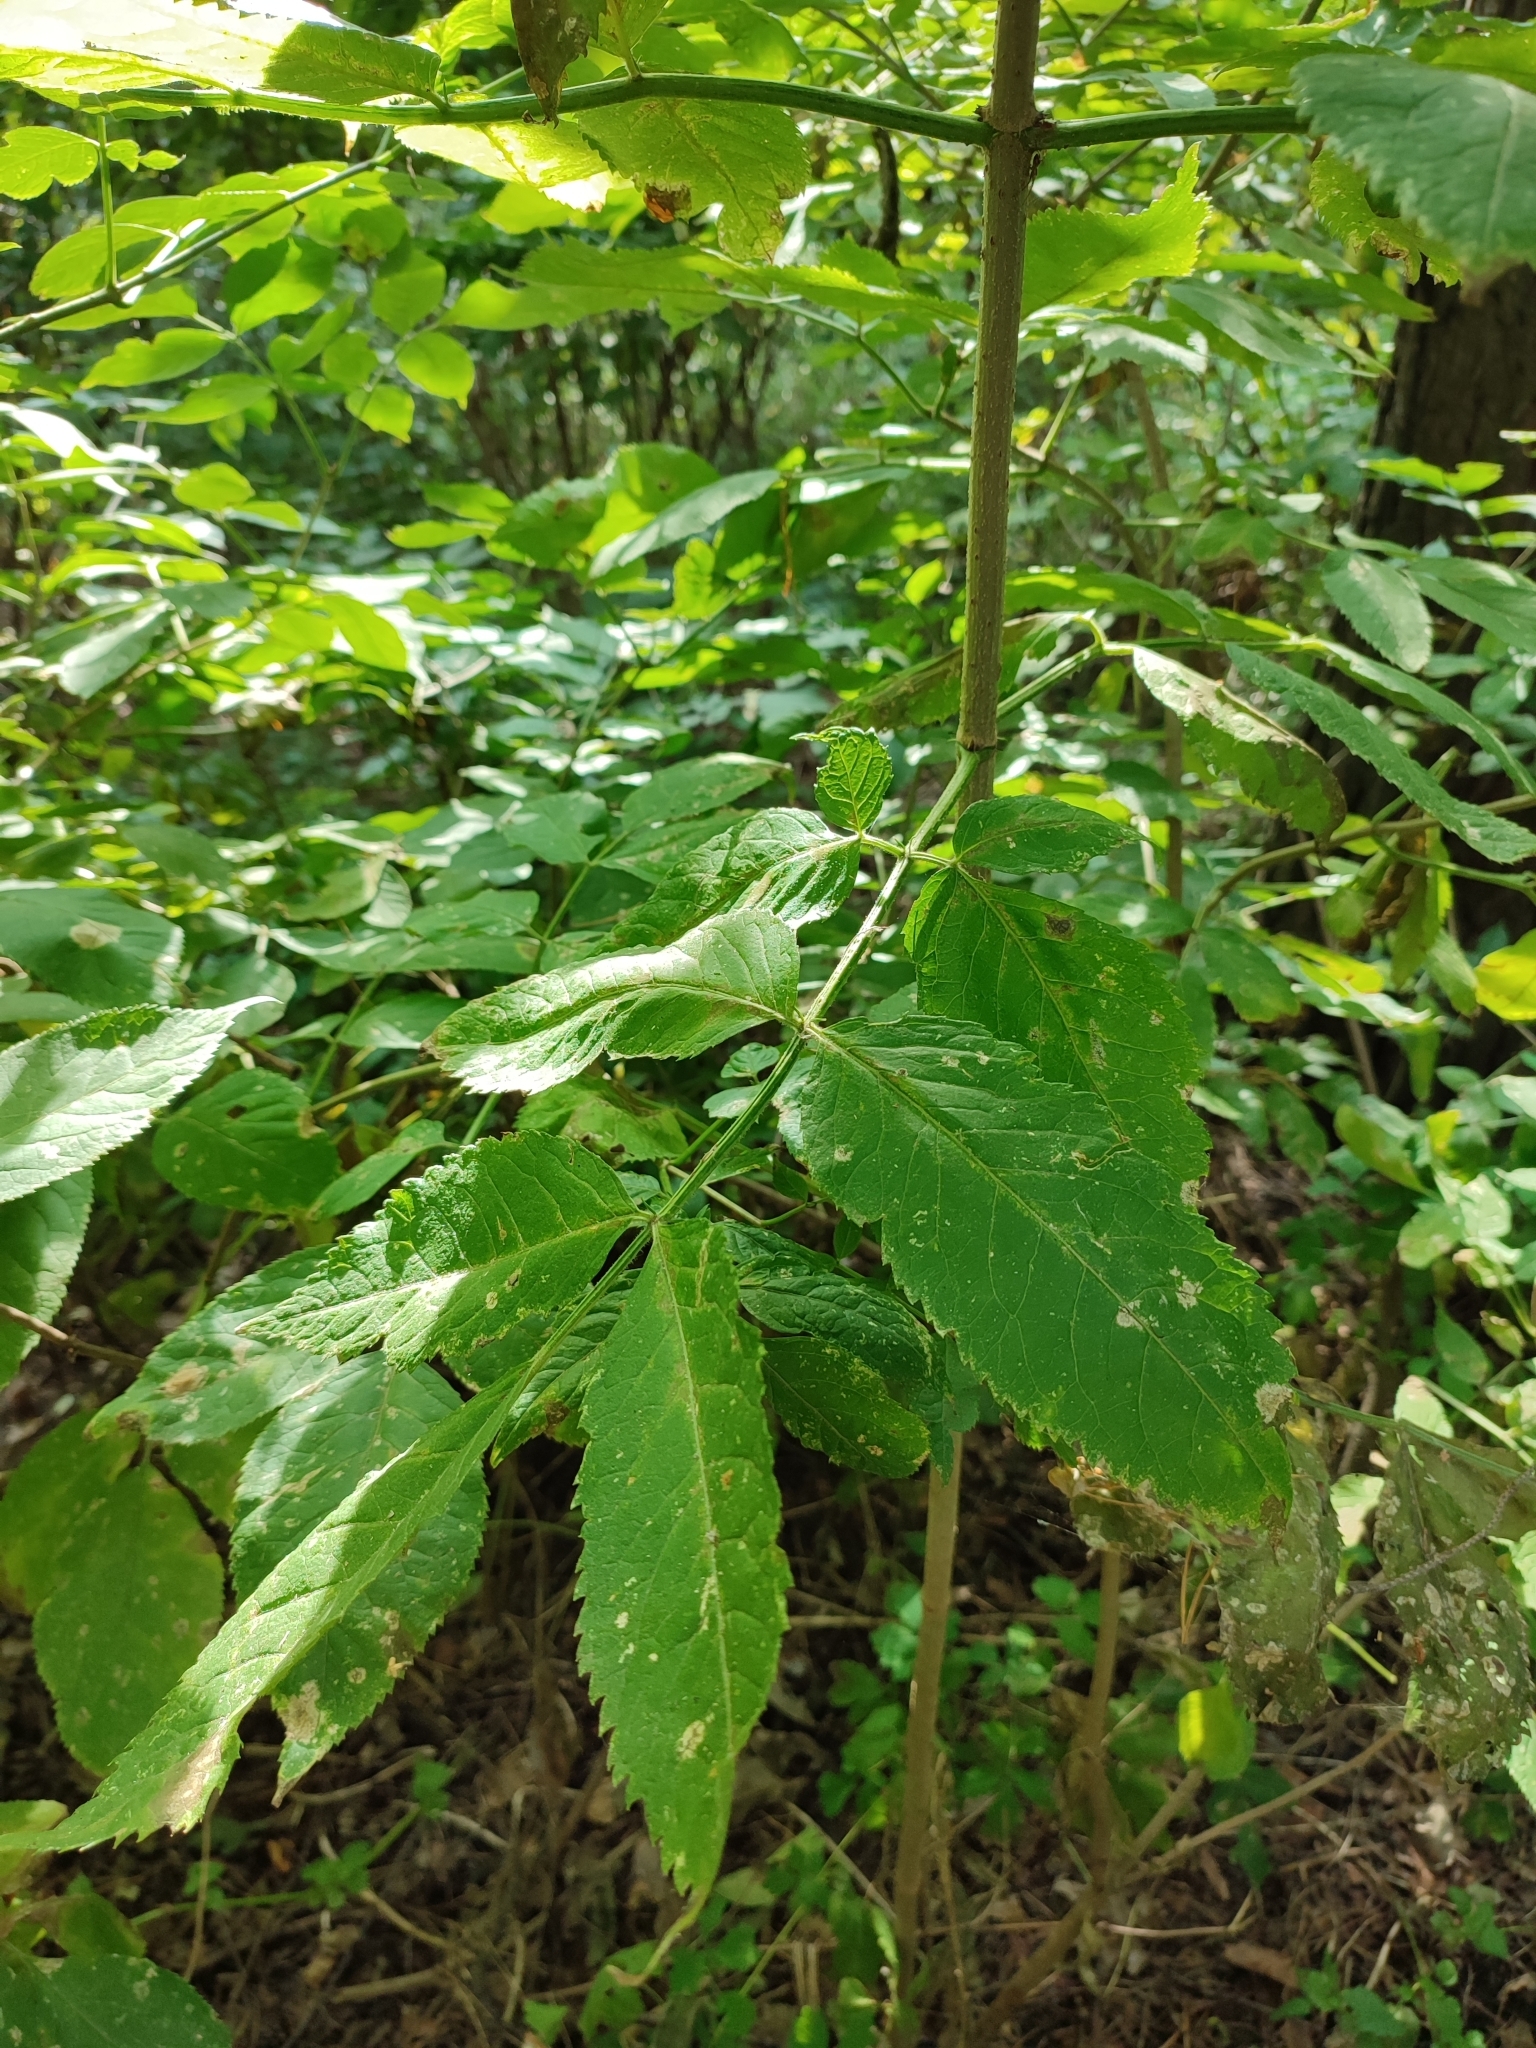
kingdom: Plantae
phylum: Tracheophyta
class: Magnoliopsida
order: Dipsacales
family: Viburnaceae
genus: Sambucus
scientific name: Sambucus nigra
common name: Elder
